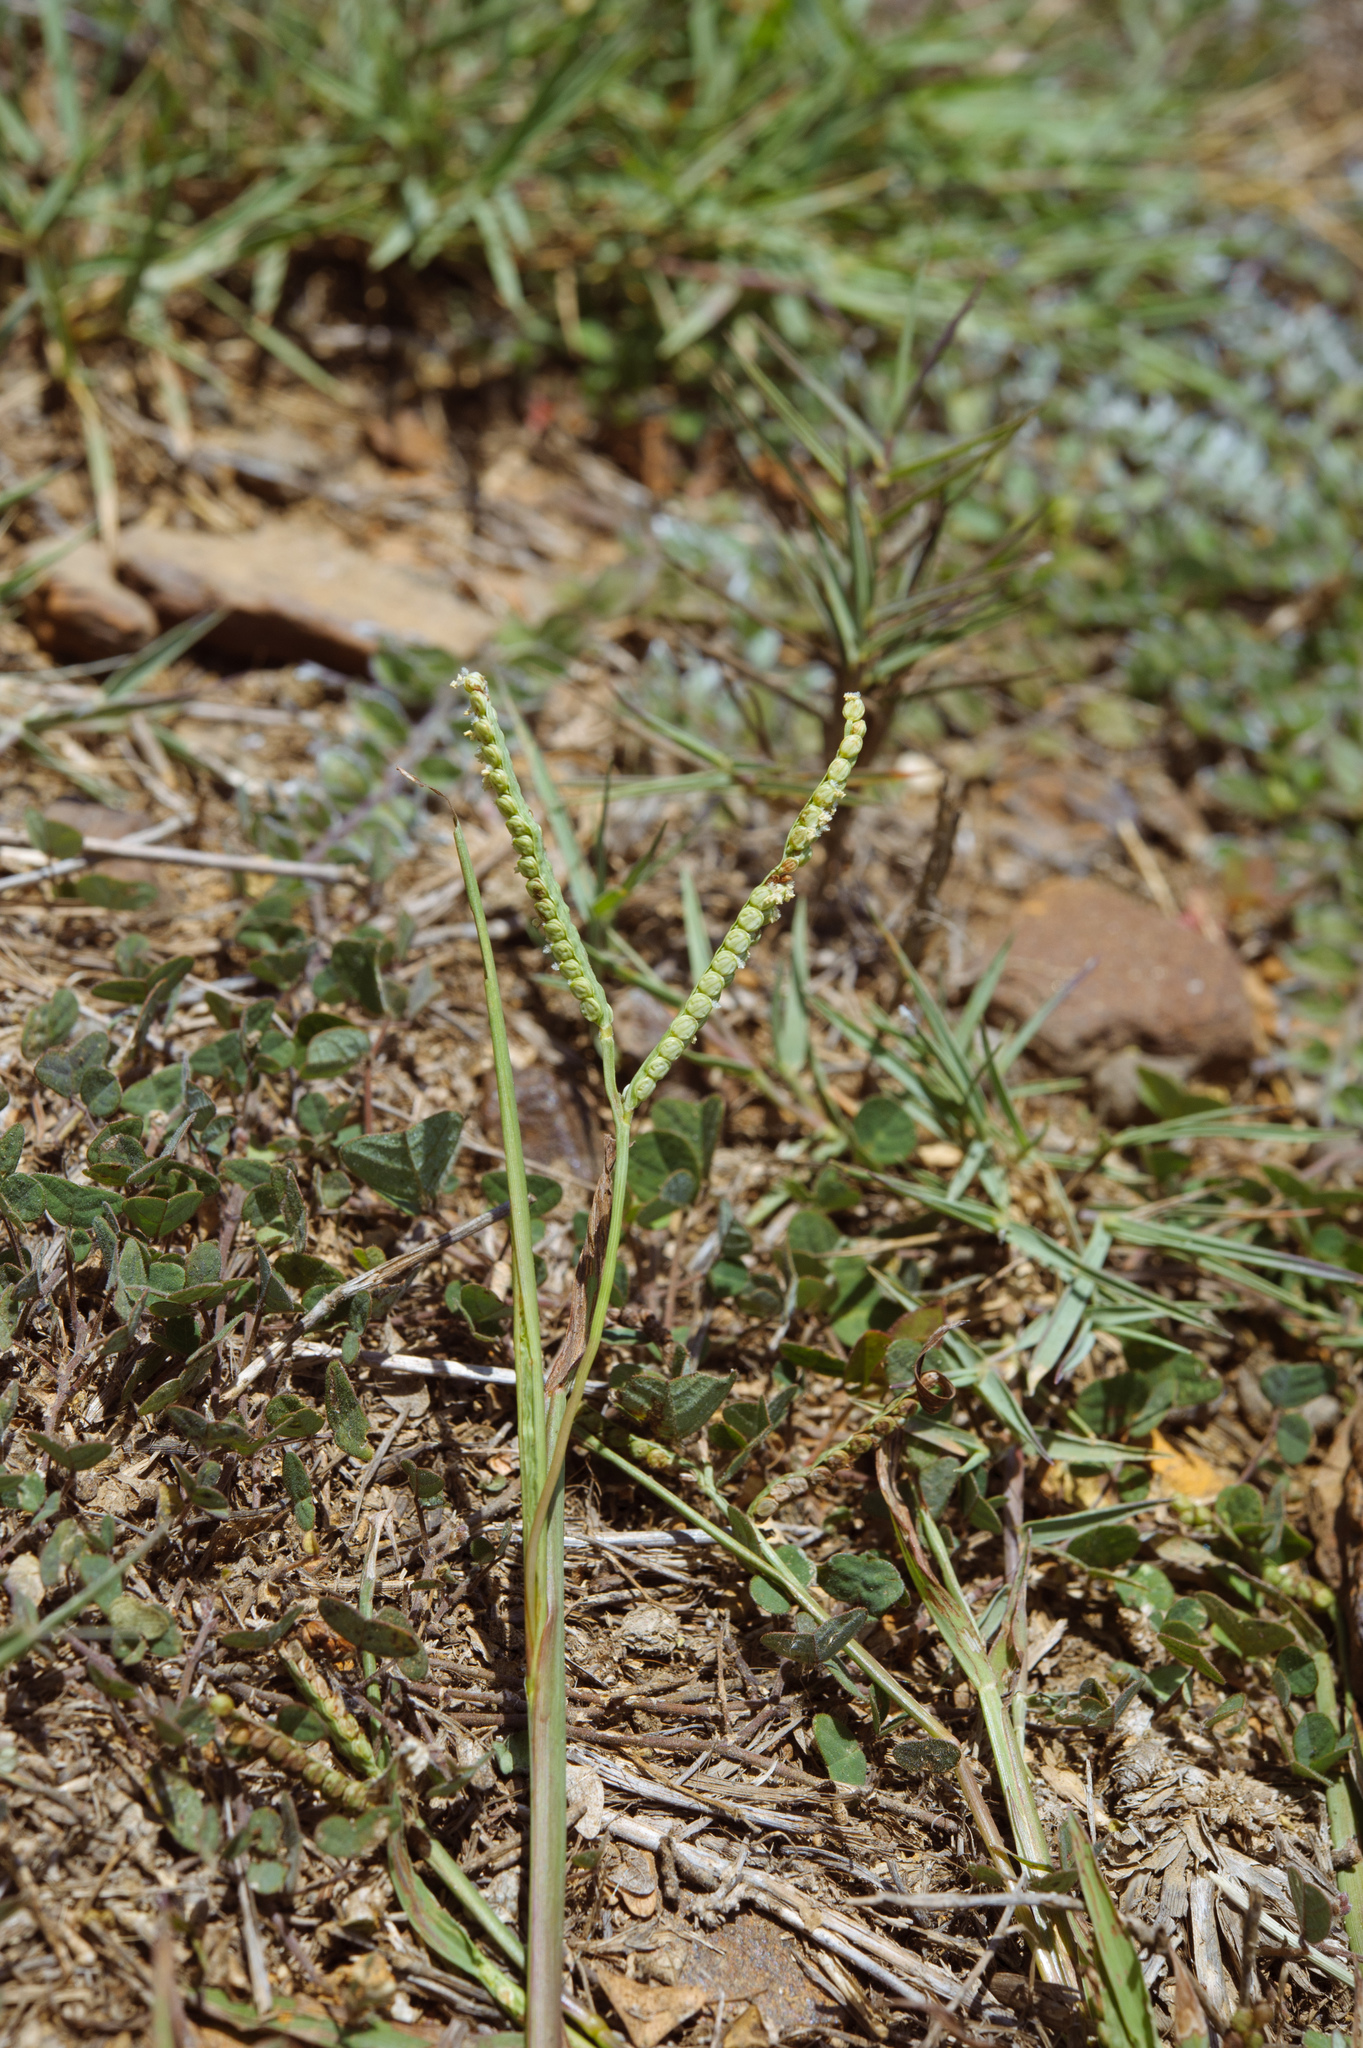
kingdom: Plantae
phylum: Tracheophyta
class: Liliopsida
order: Poales
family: Poaceae
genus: Paspalum
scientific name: Paspalum scrobiculatum
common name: Kodo millet
